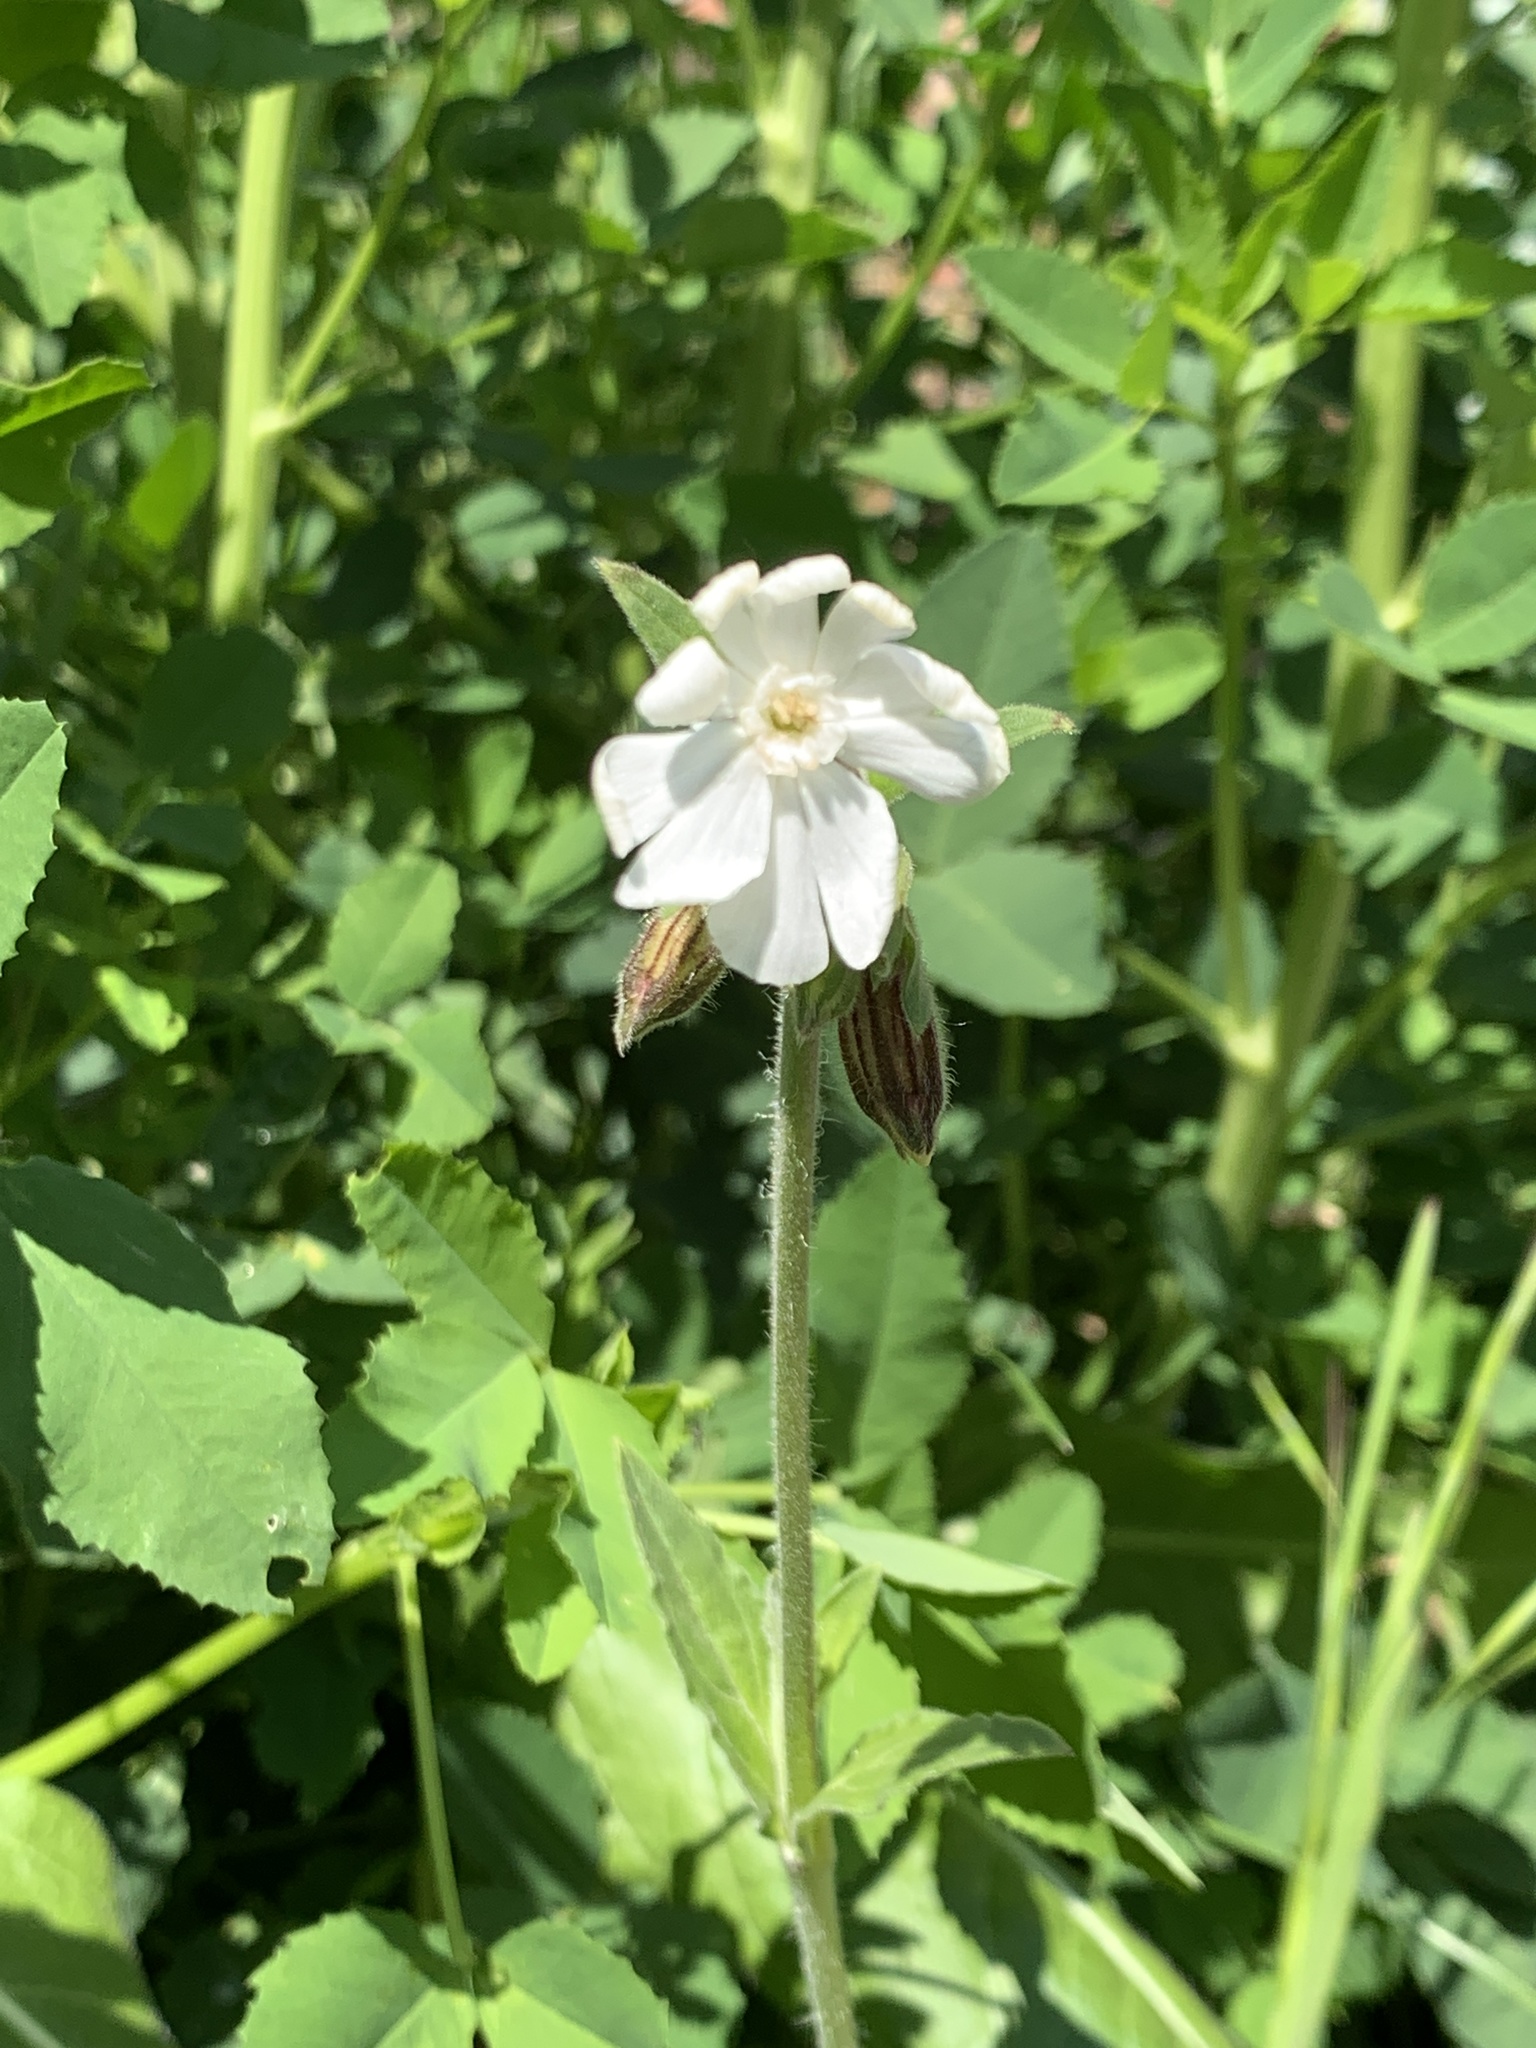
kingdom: Plantae
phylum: Tracheophyta
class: Magnoliopsida
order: Caryophyllales
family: Caryophyllaceae
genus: Silene
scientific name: Silene latifolia
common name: White campion
